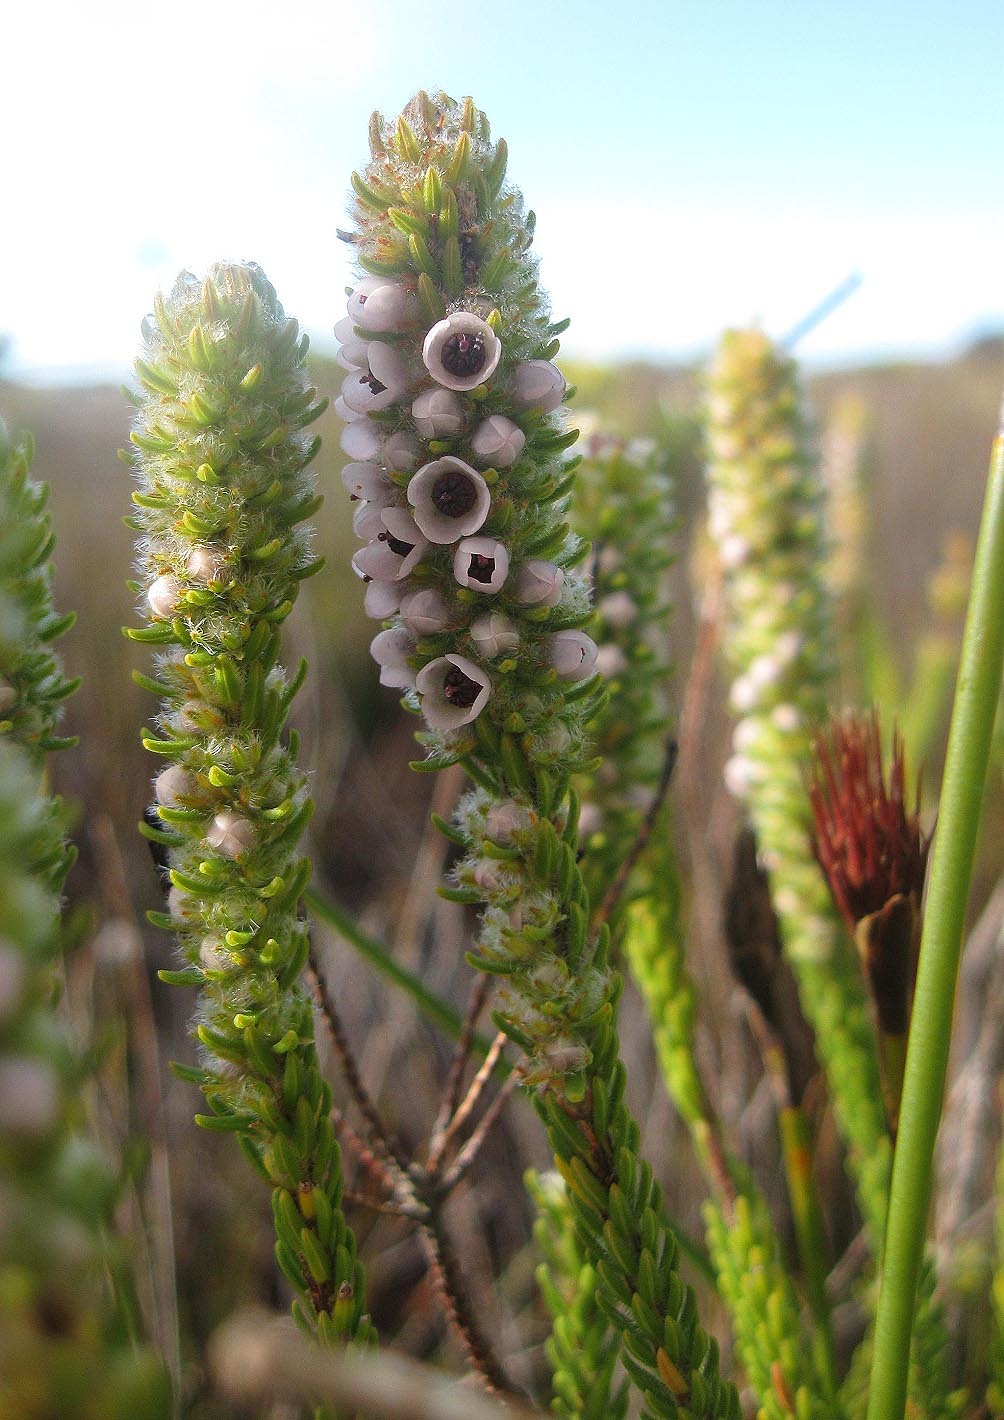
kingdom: Plantae
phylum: Tracheophyta
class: Magnoliopsida
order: Ericales
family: Ericaceae
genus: Erica
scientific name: Erica pyxidiflora
